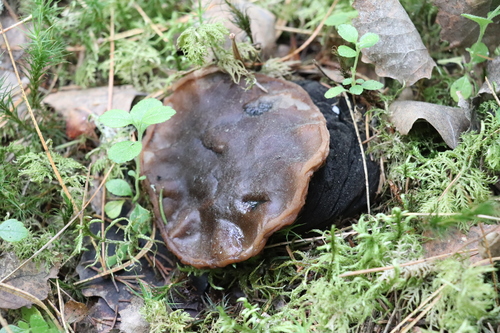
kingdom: Fungi
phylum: Ascomycota
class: Pezizomycetes
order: Pezizales
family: Sarcosomataceae
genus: Sarcosoma
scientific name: Sarcosoma globosum
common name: Charred-pancake cup
